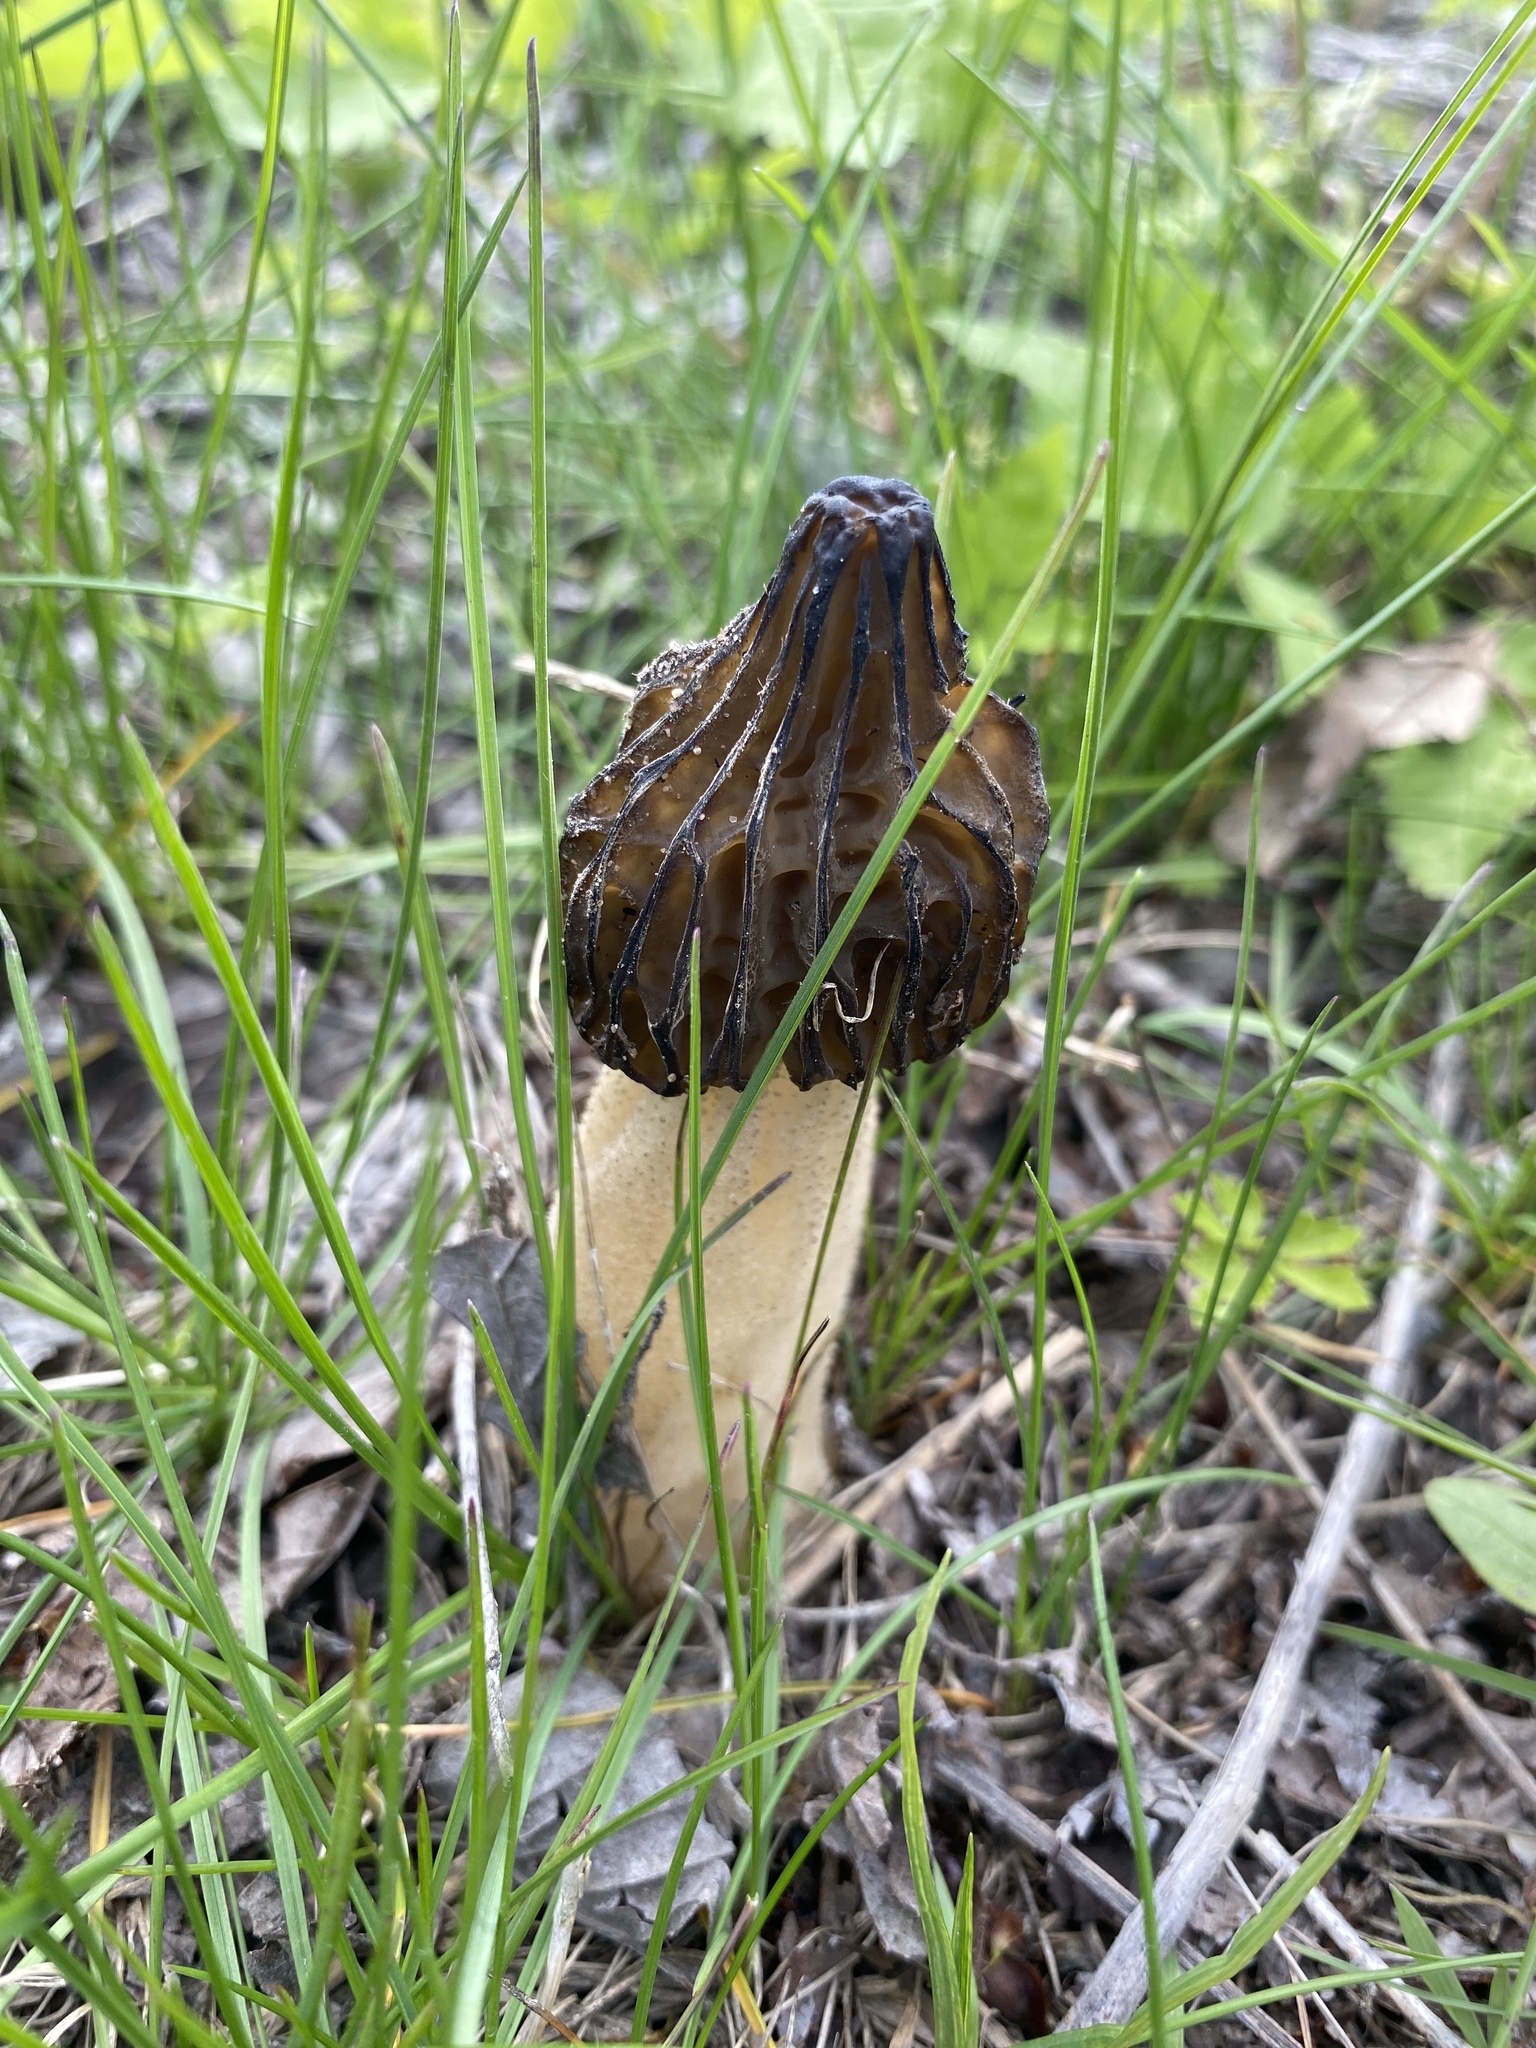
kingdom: Fungi
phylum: Ascomycota
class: Pezizomycetes
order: Pezizales
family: Morchellaceae
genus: Morchella
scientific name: Morchella punctipes
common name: Half-free morel
